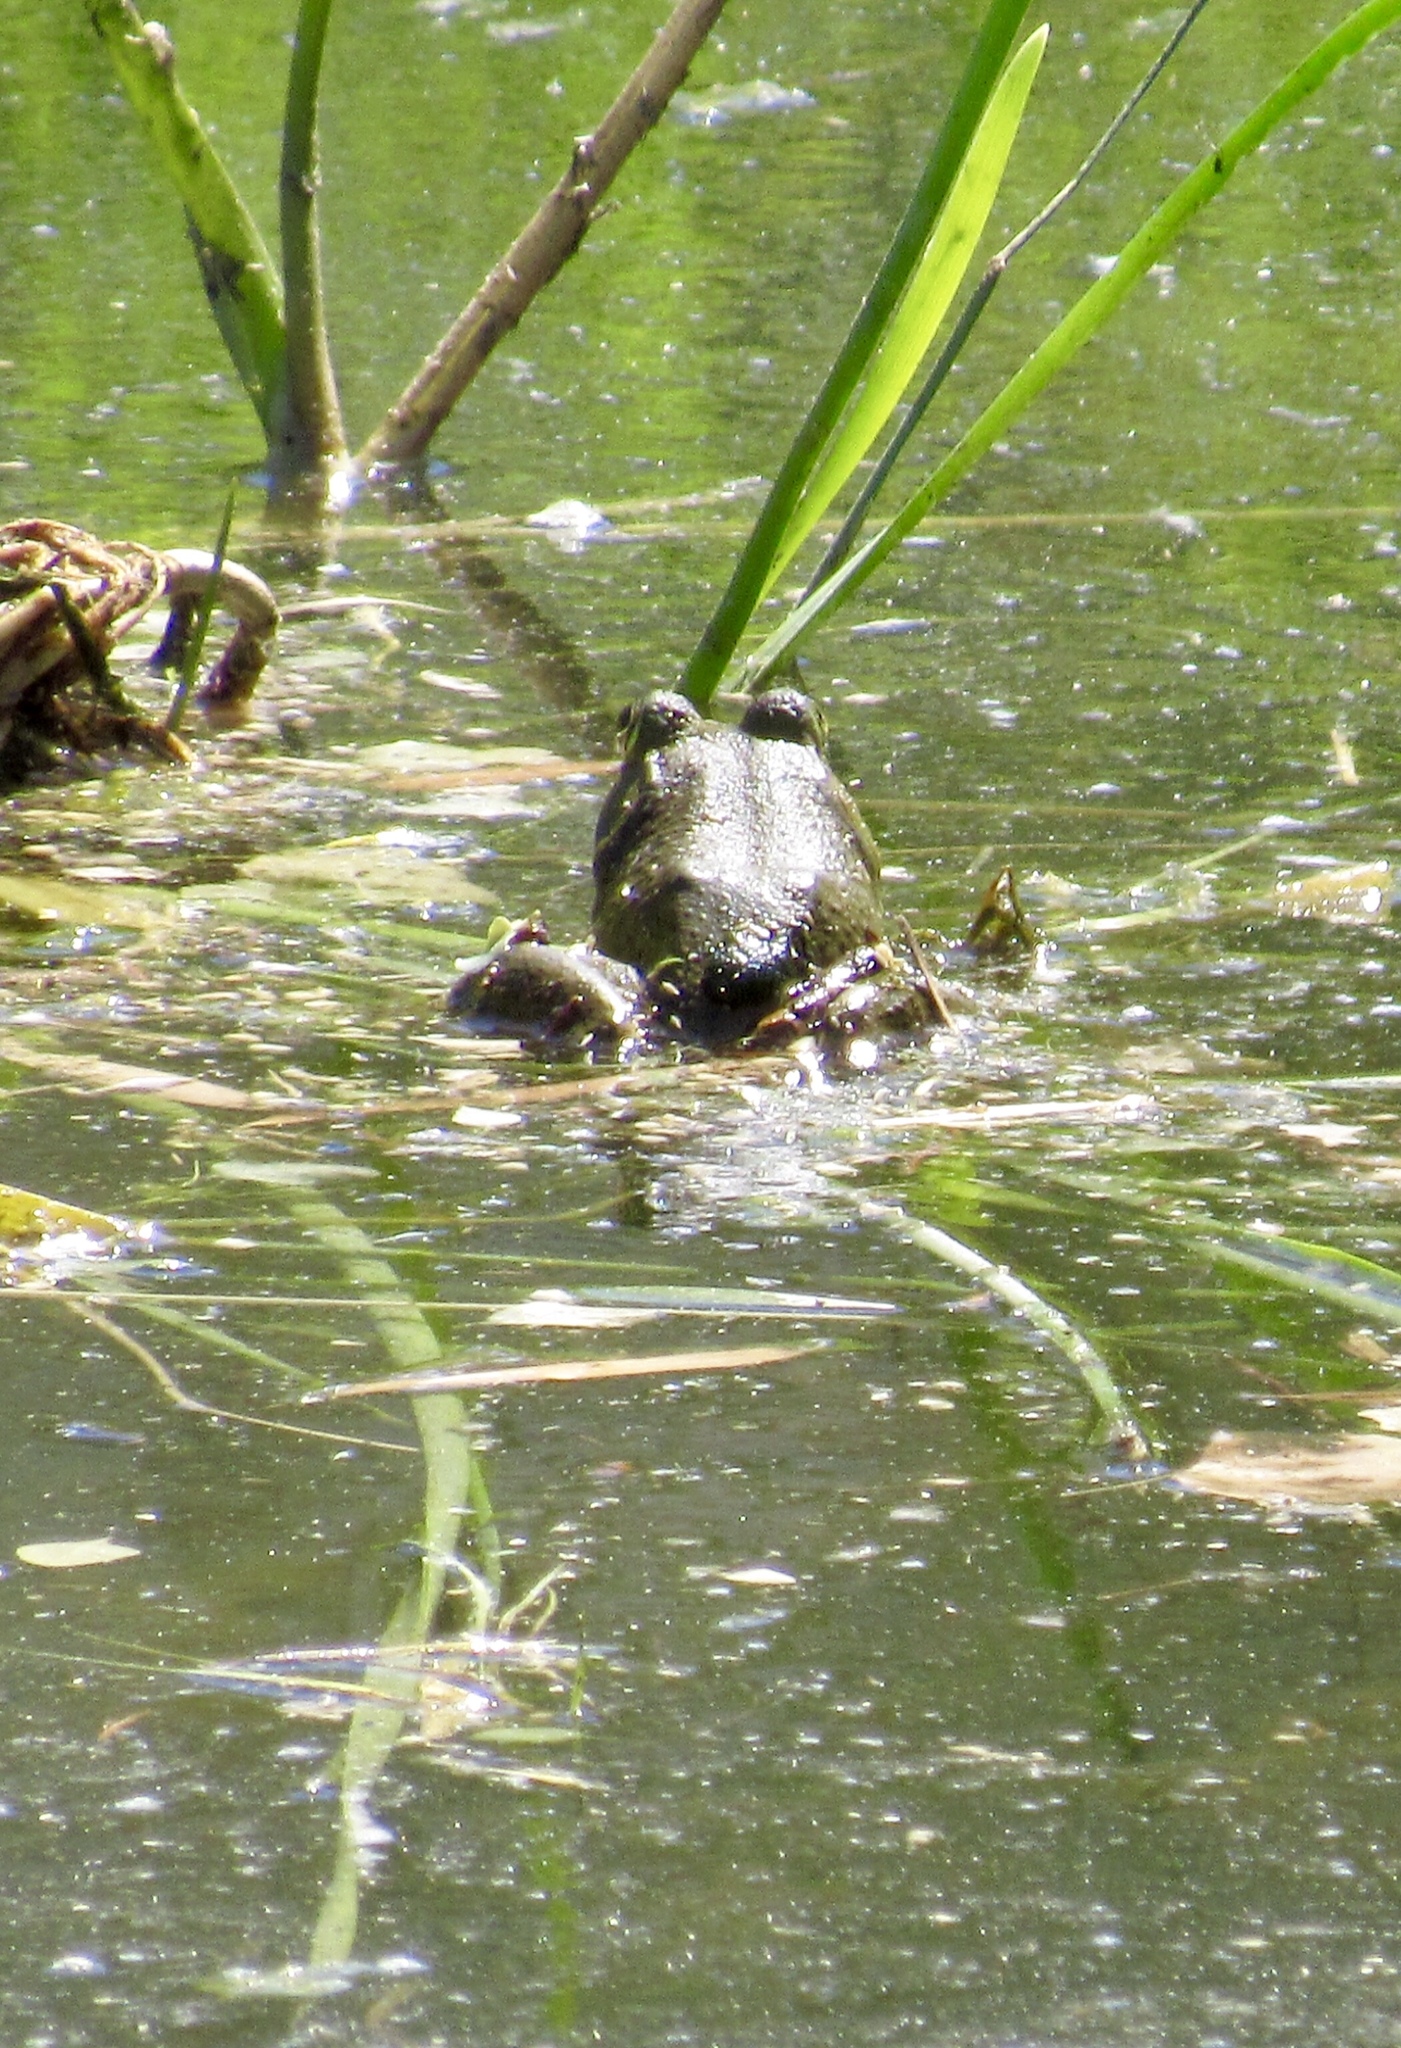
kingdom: Animalia
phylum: Chordata
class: Amphibia
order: Anura
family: Ranidae
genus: Lithobates
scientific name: Lithobates catesbeianus
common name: American bullfrog
